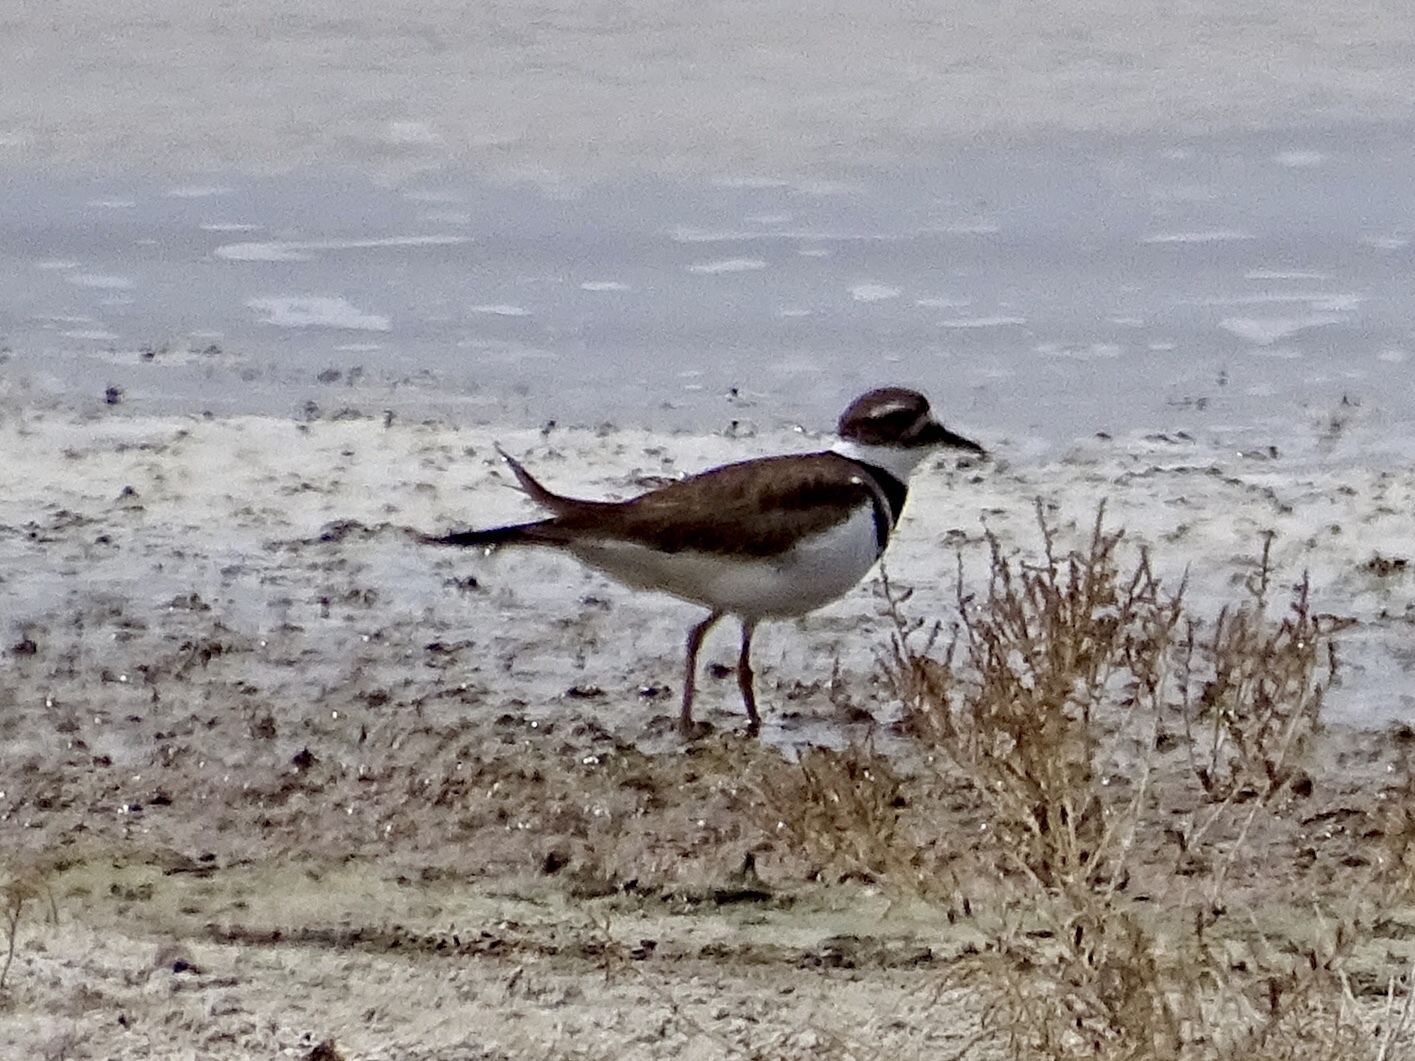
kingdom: Animalia
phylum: Chordata
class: Aves
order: Charadriiformes
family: Charadriidae
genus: Charadrius
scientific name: Charadrius vociferus
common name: Killdeer
